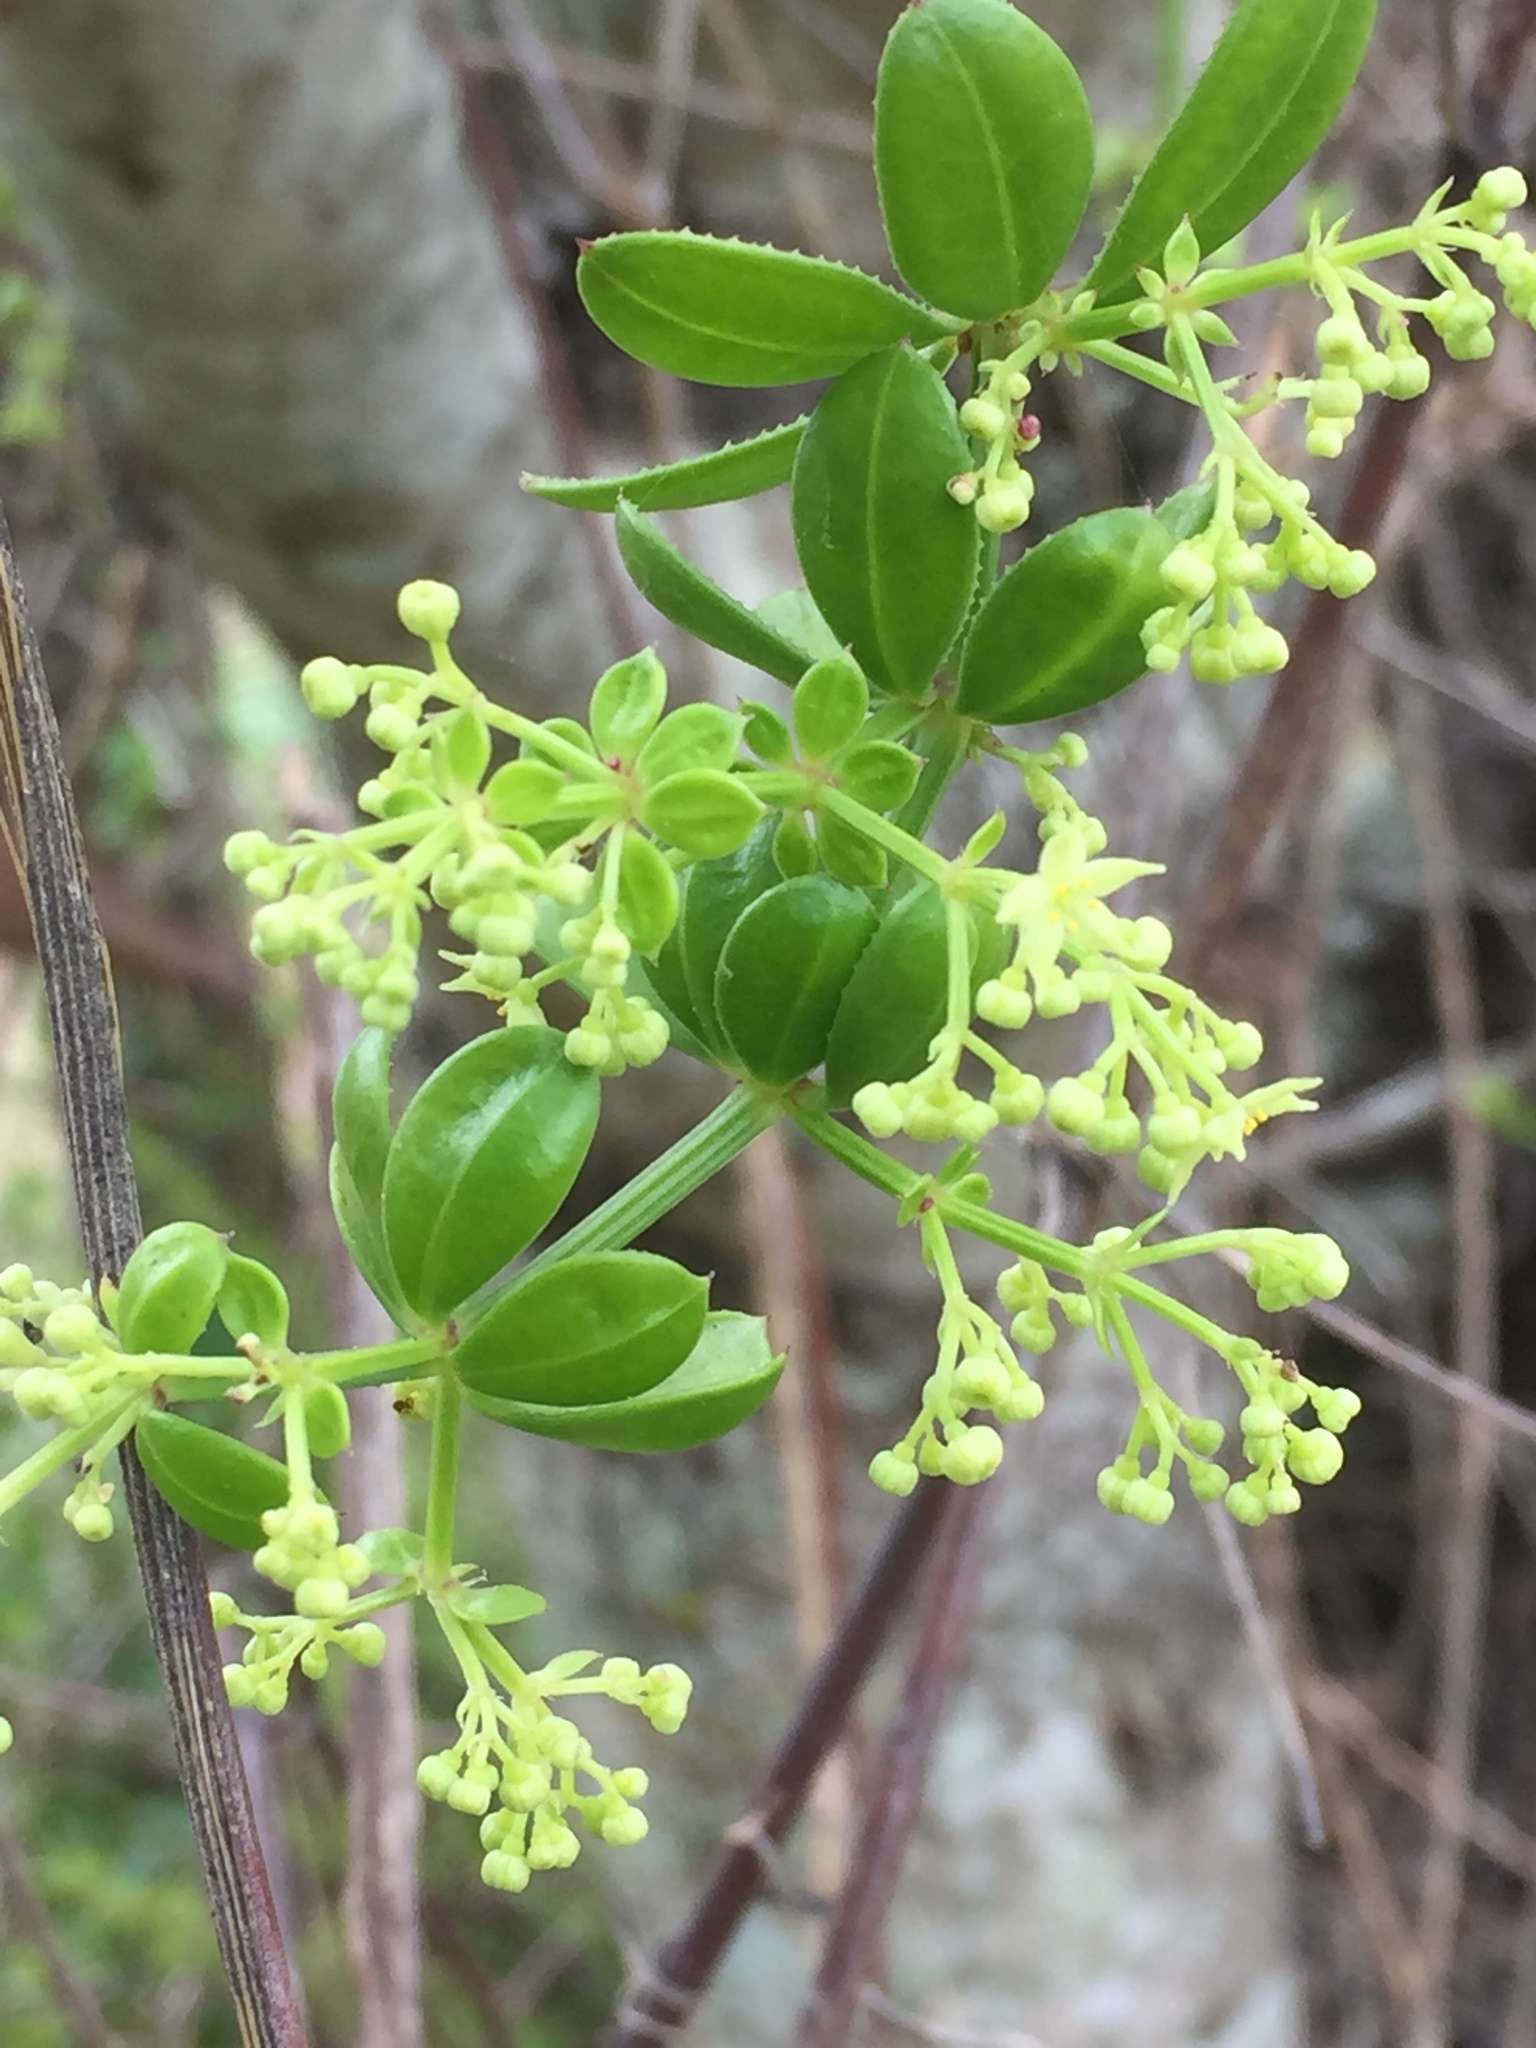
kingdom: Plantae
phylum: Tracheophyta
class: Magnoliopsida
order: Gentianales
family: Rubiaceae
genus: Rubia
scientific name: Rubia peregrina
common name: Wild madder
